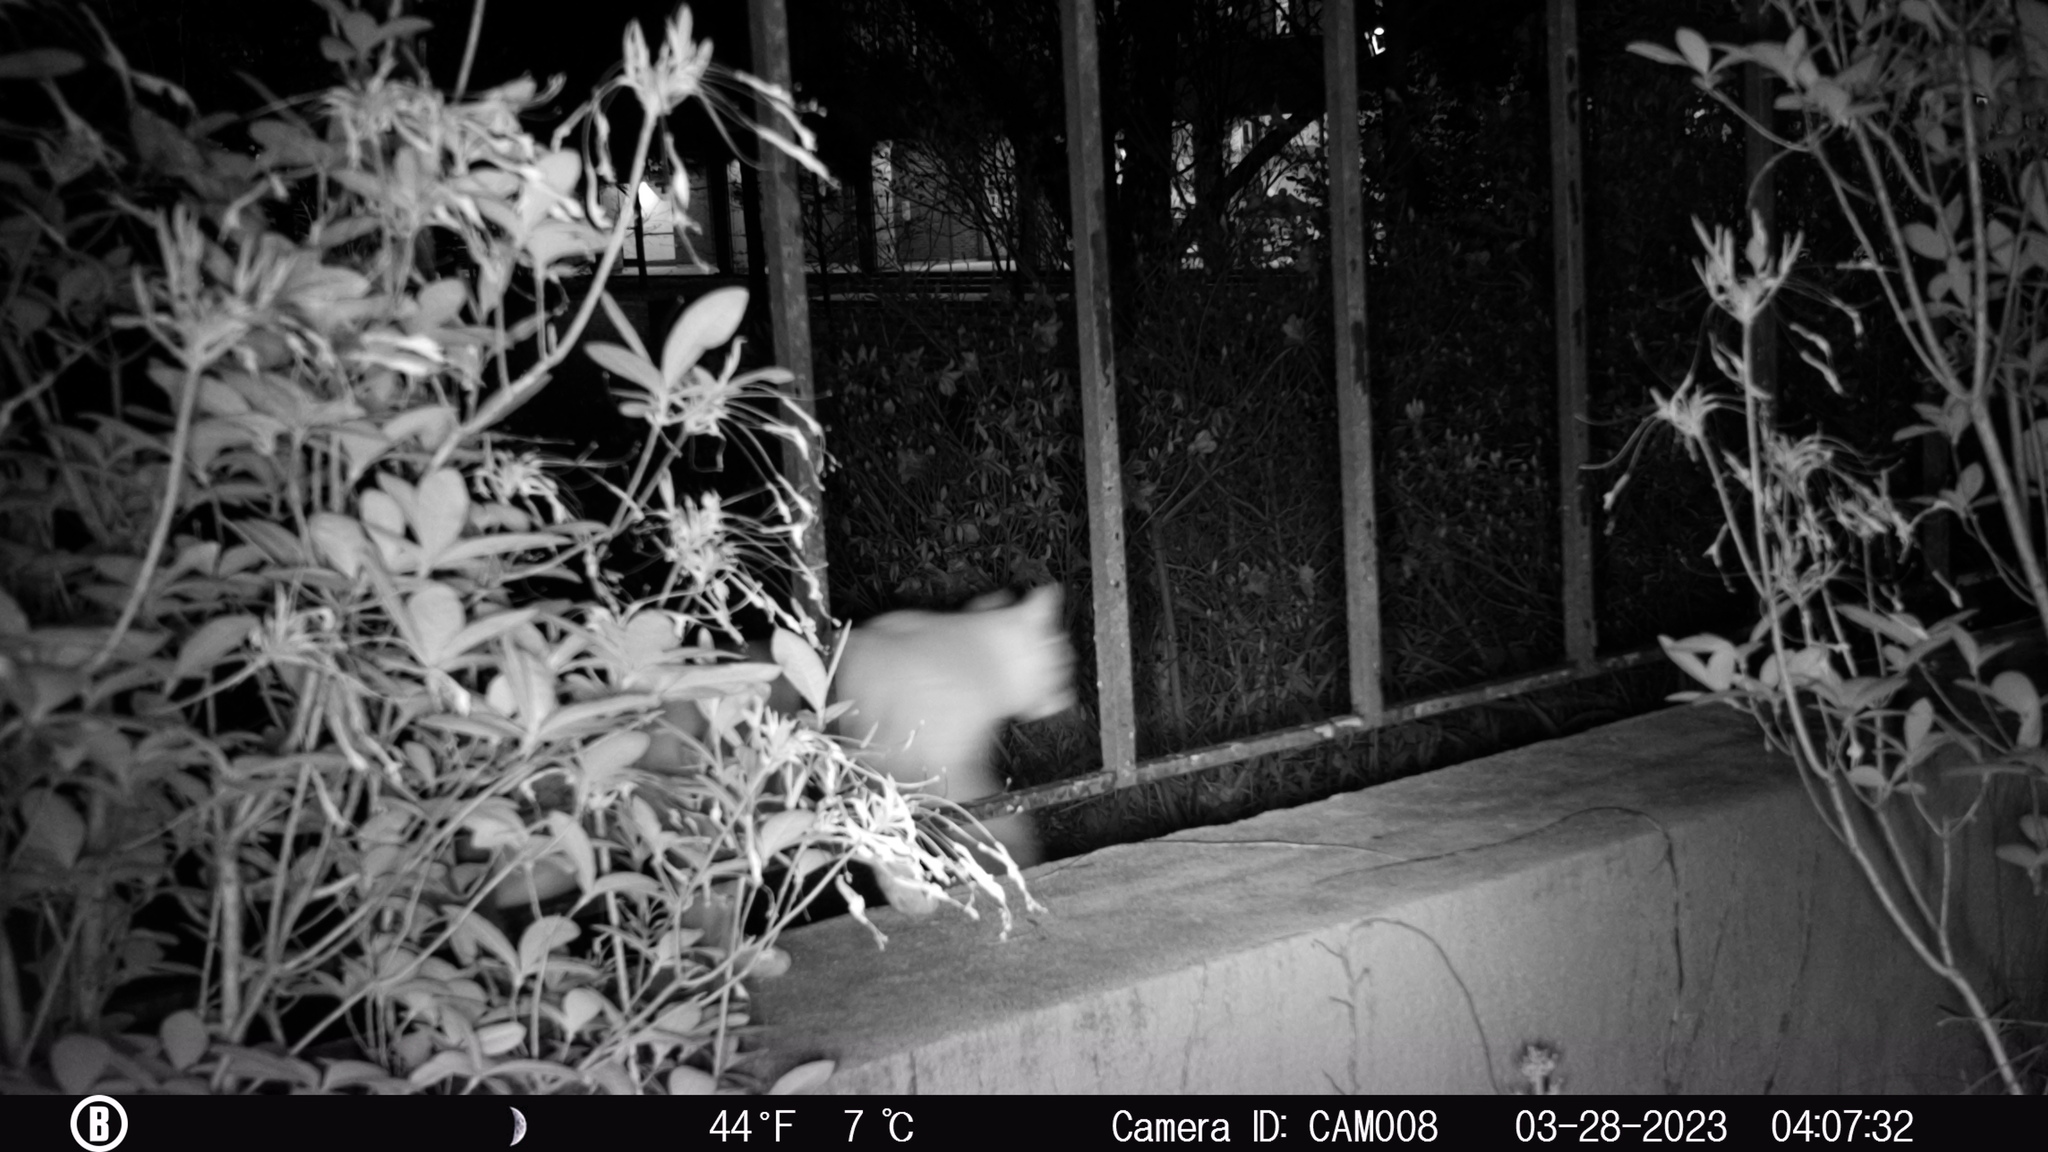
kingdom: Animalia
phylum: Chordata
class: Mammalia
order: Carnivora
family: Felidae
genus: Felis
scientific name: Felis catus
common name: Domestic cat
